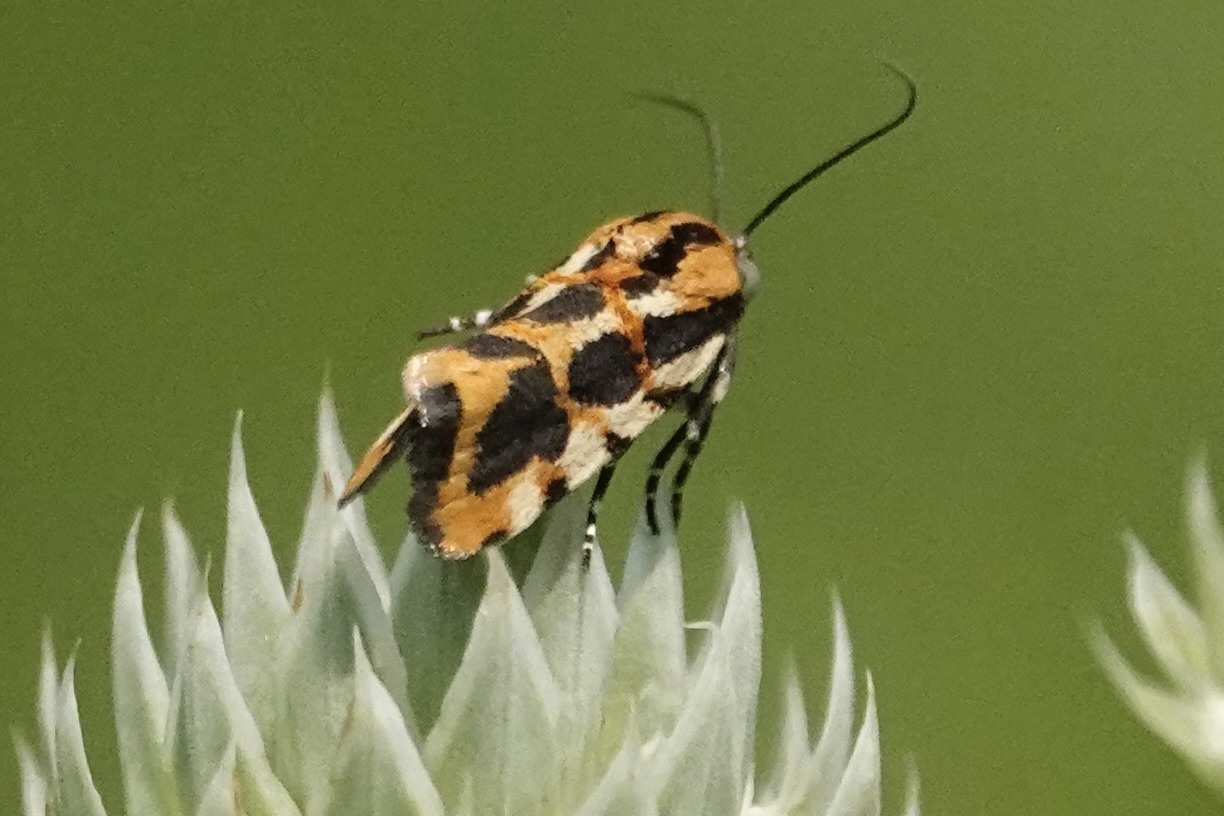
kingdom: Animalia
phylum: Arthropoda
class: Insecta
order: Lepidoptera
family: Noctuidae
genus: Acontia
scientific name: Acontia leo
